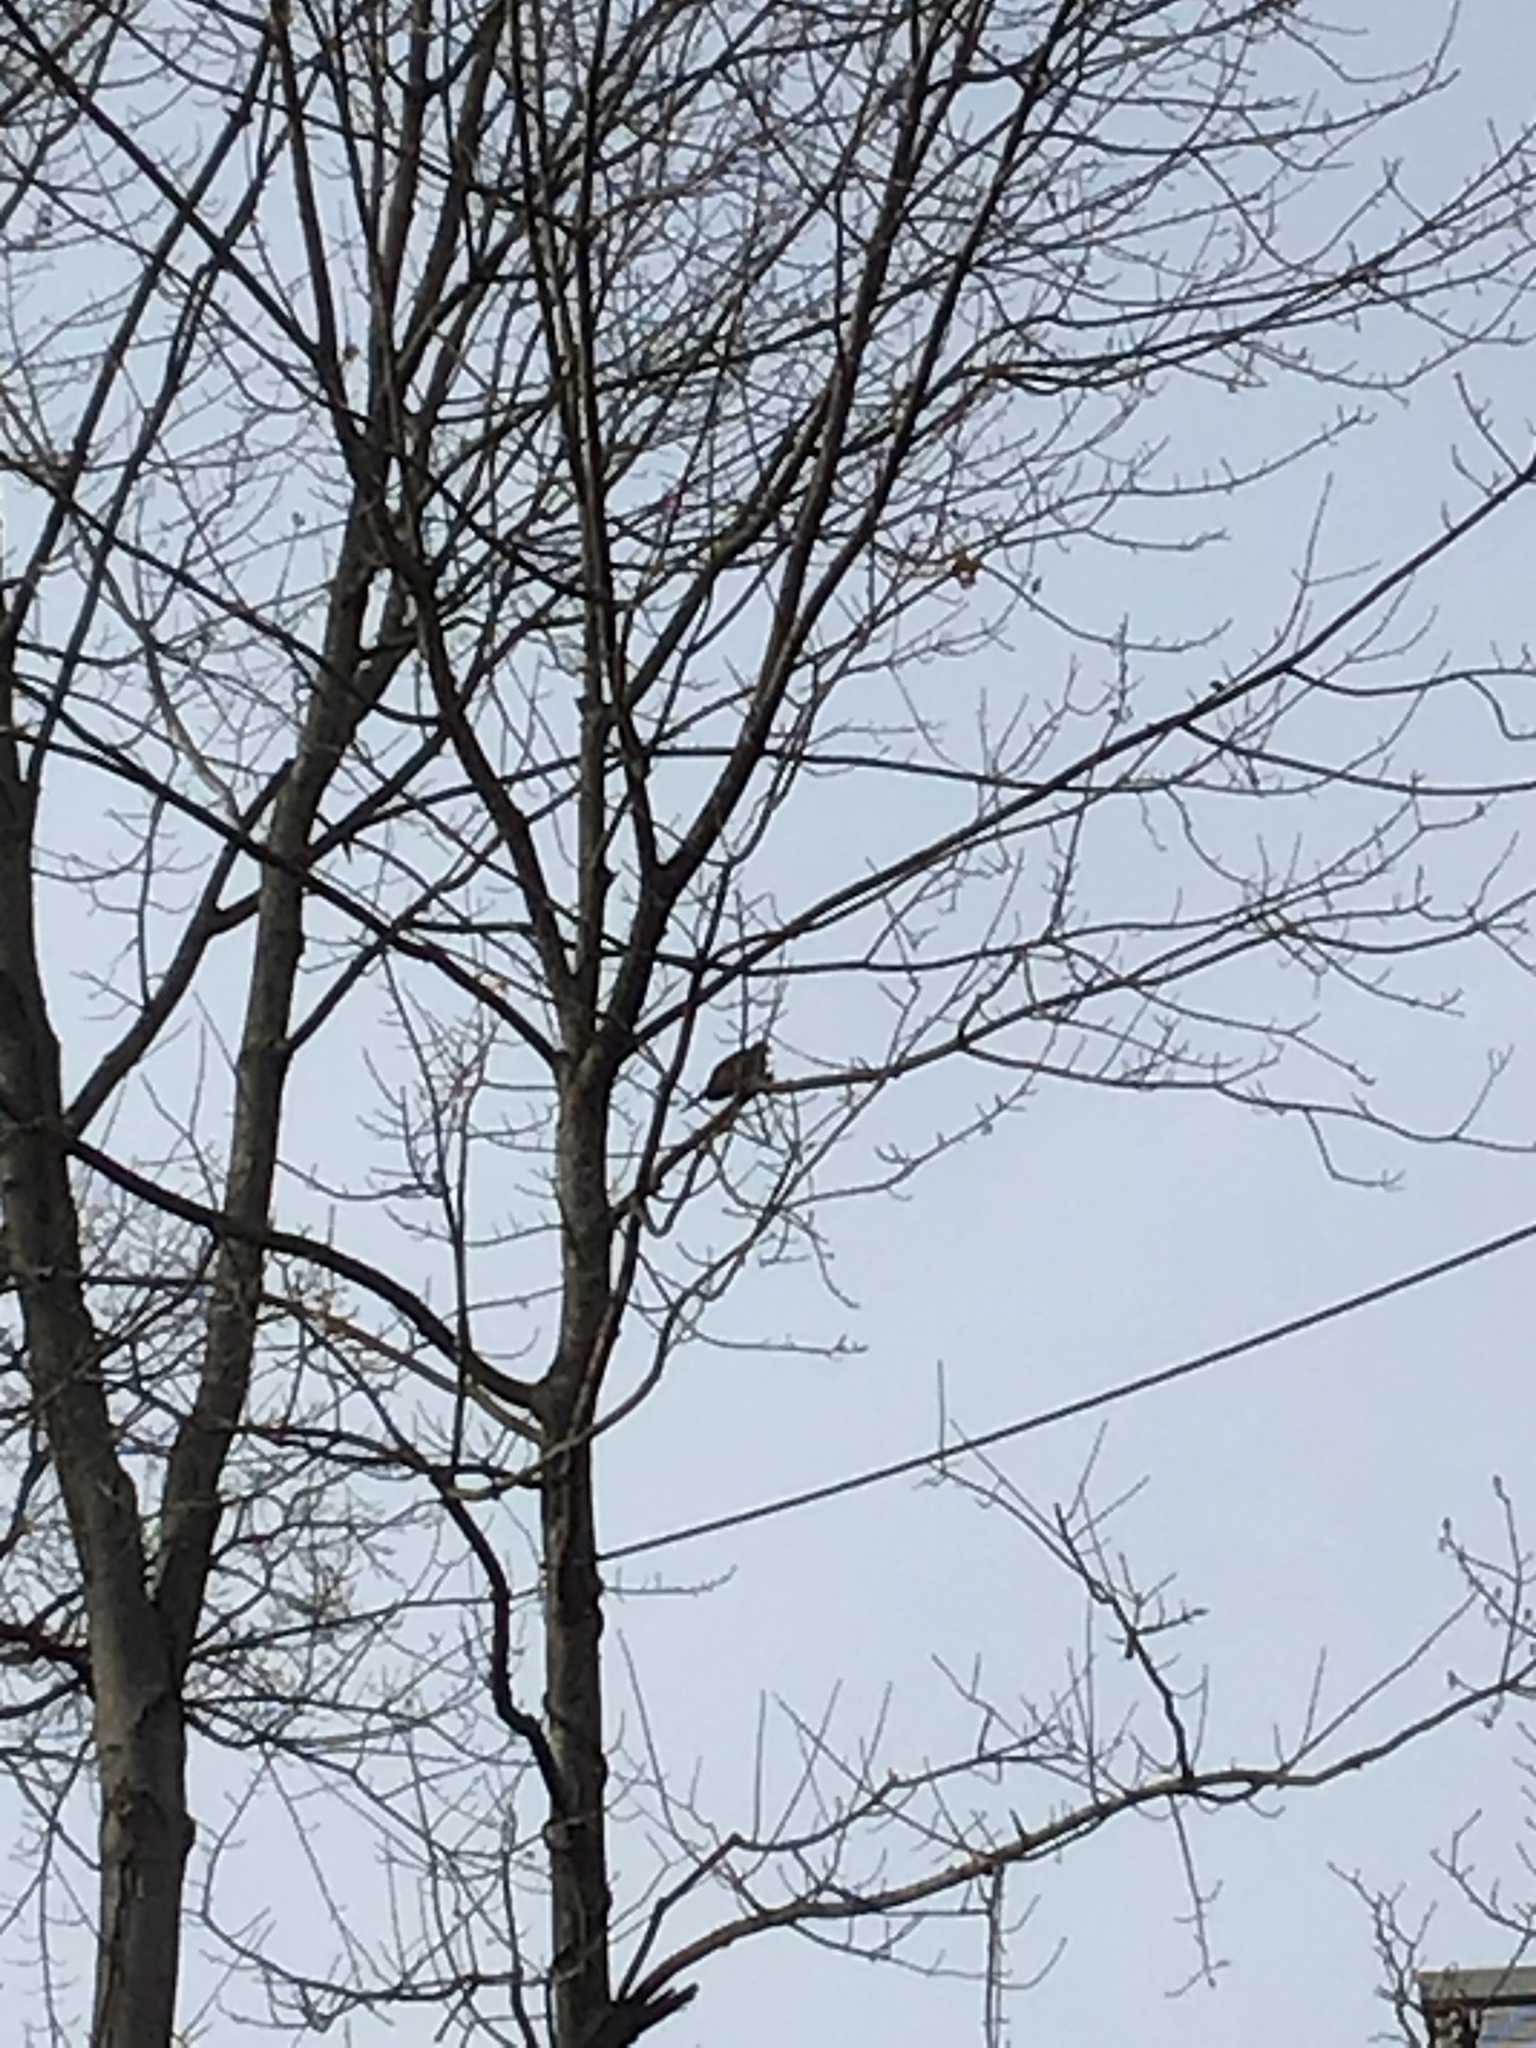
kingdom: Animalia
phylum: Chordata
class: Aves
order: Columbiformes
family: Columbidae
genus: Zenaida
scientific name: Zenaida macroura
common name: Mourning dove
